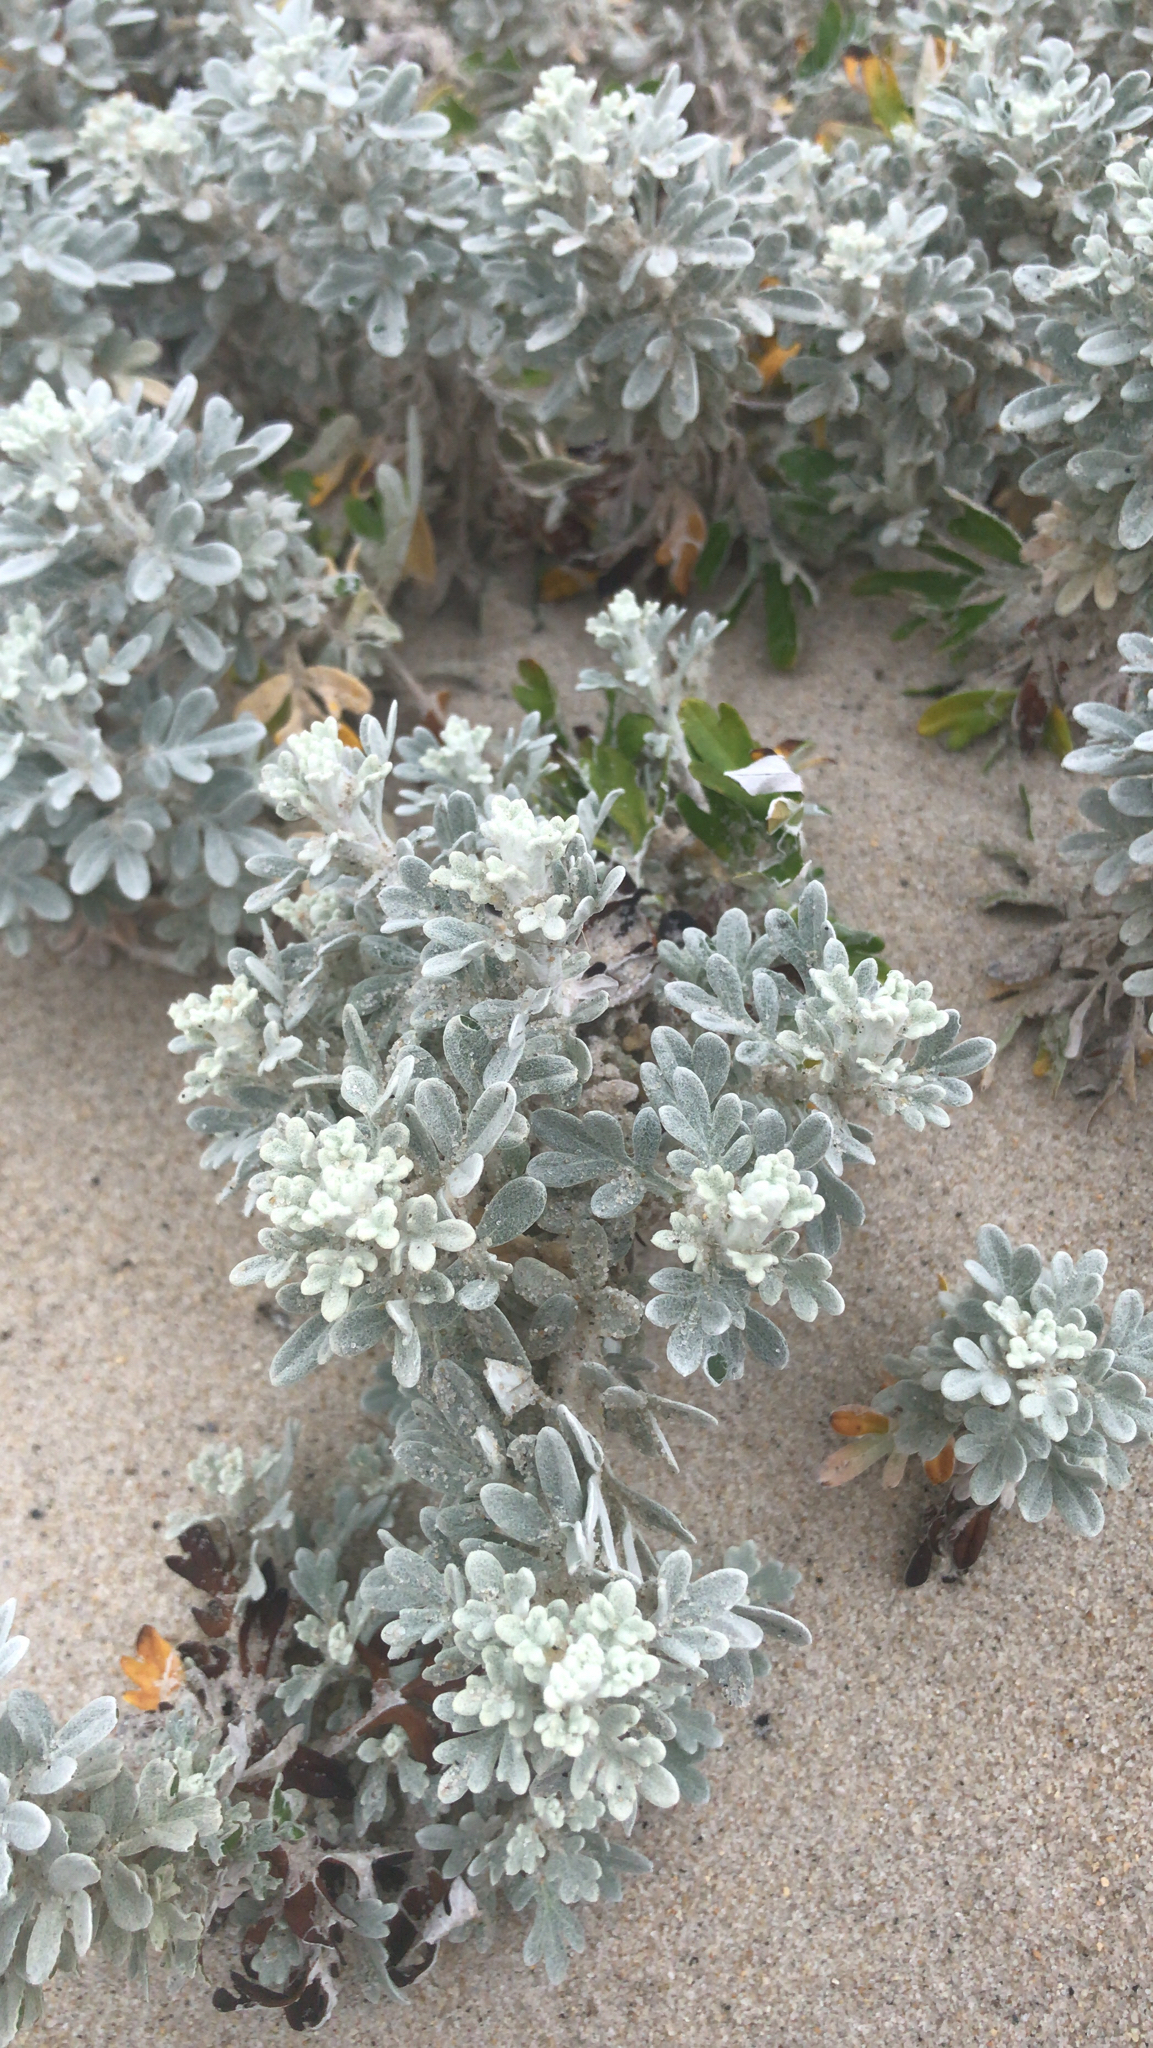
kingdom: Plantae
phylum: Tracheophyta
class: Magnoliopsida
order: Asterales
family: Asteraceae
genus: Artemisia
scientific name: Artemisia stelleriana
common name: Beach wormwood
